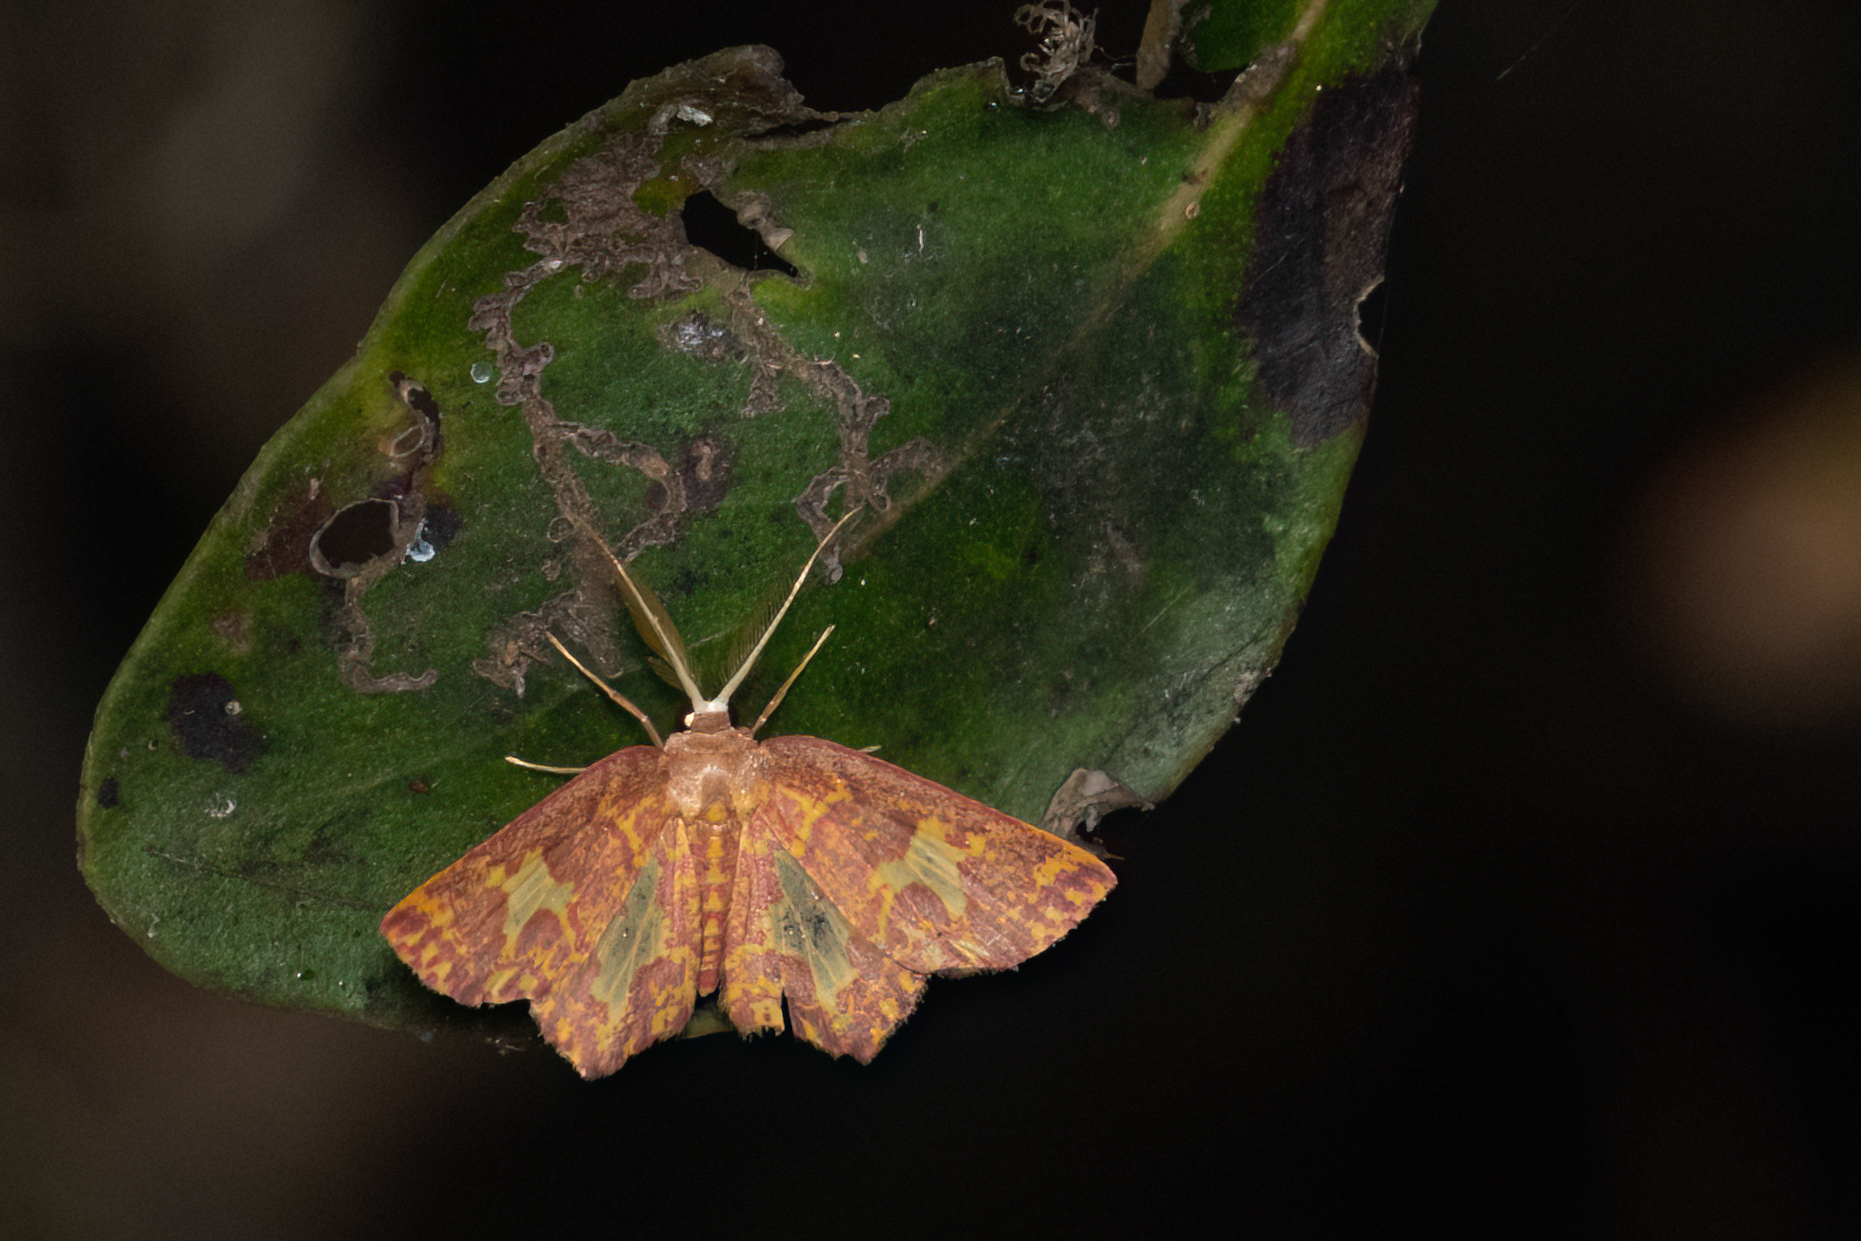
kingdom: Animalia
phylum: Arthropoda
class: Insecta
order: Lepidoptera
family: Geometridae
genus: Chrysocraspeda
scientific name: Chrysocraspeda faganaria
